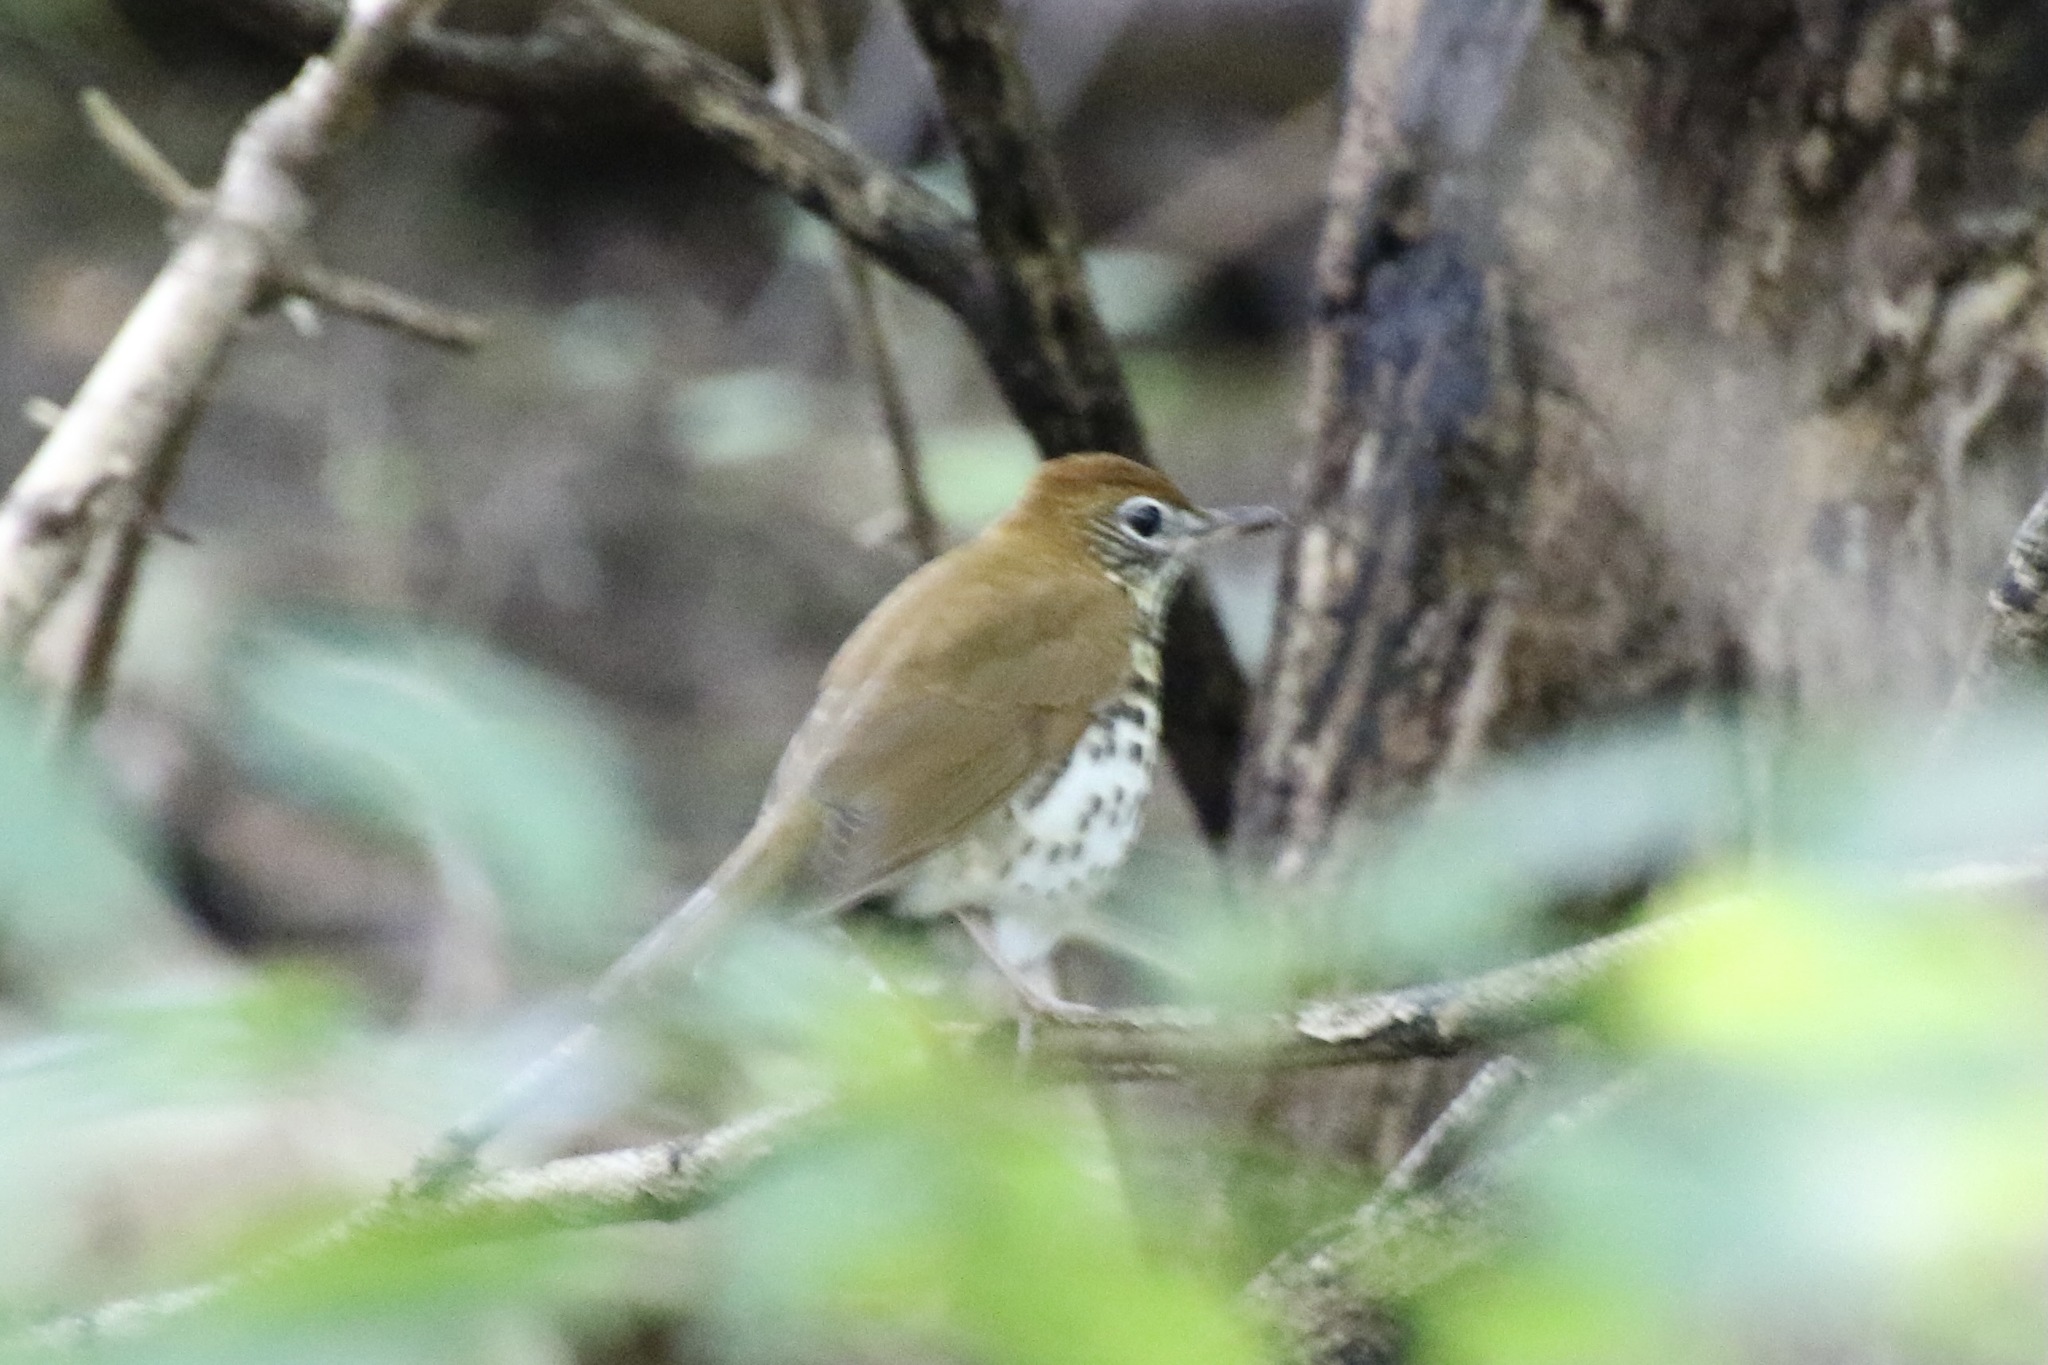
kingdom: Animalia
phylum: Chordata
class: Aves
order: Passeriformes
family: Turdidae
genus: Hylocichla
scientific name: Hylocichla mustelina
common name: Wood thrush
